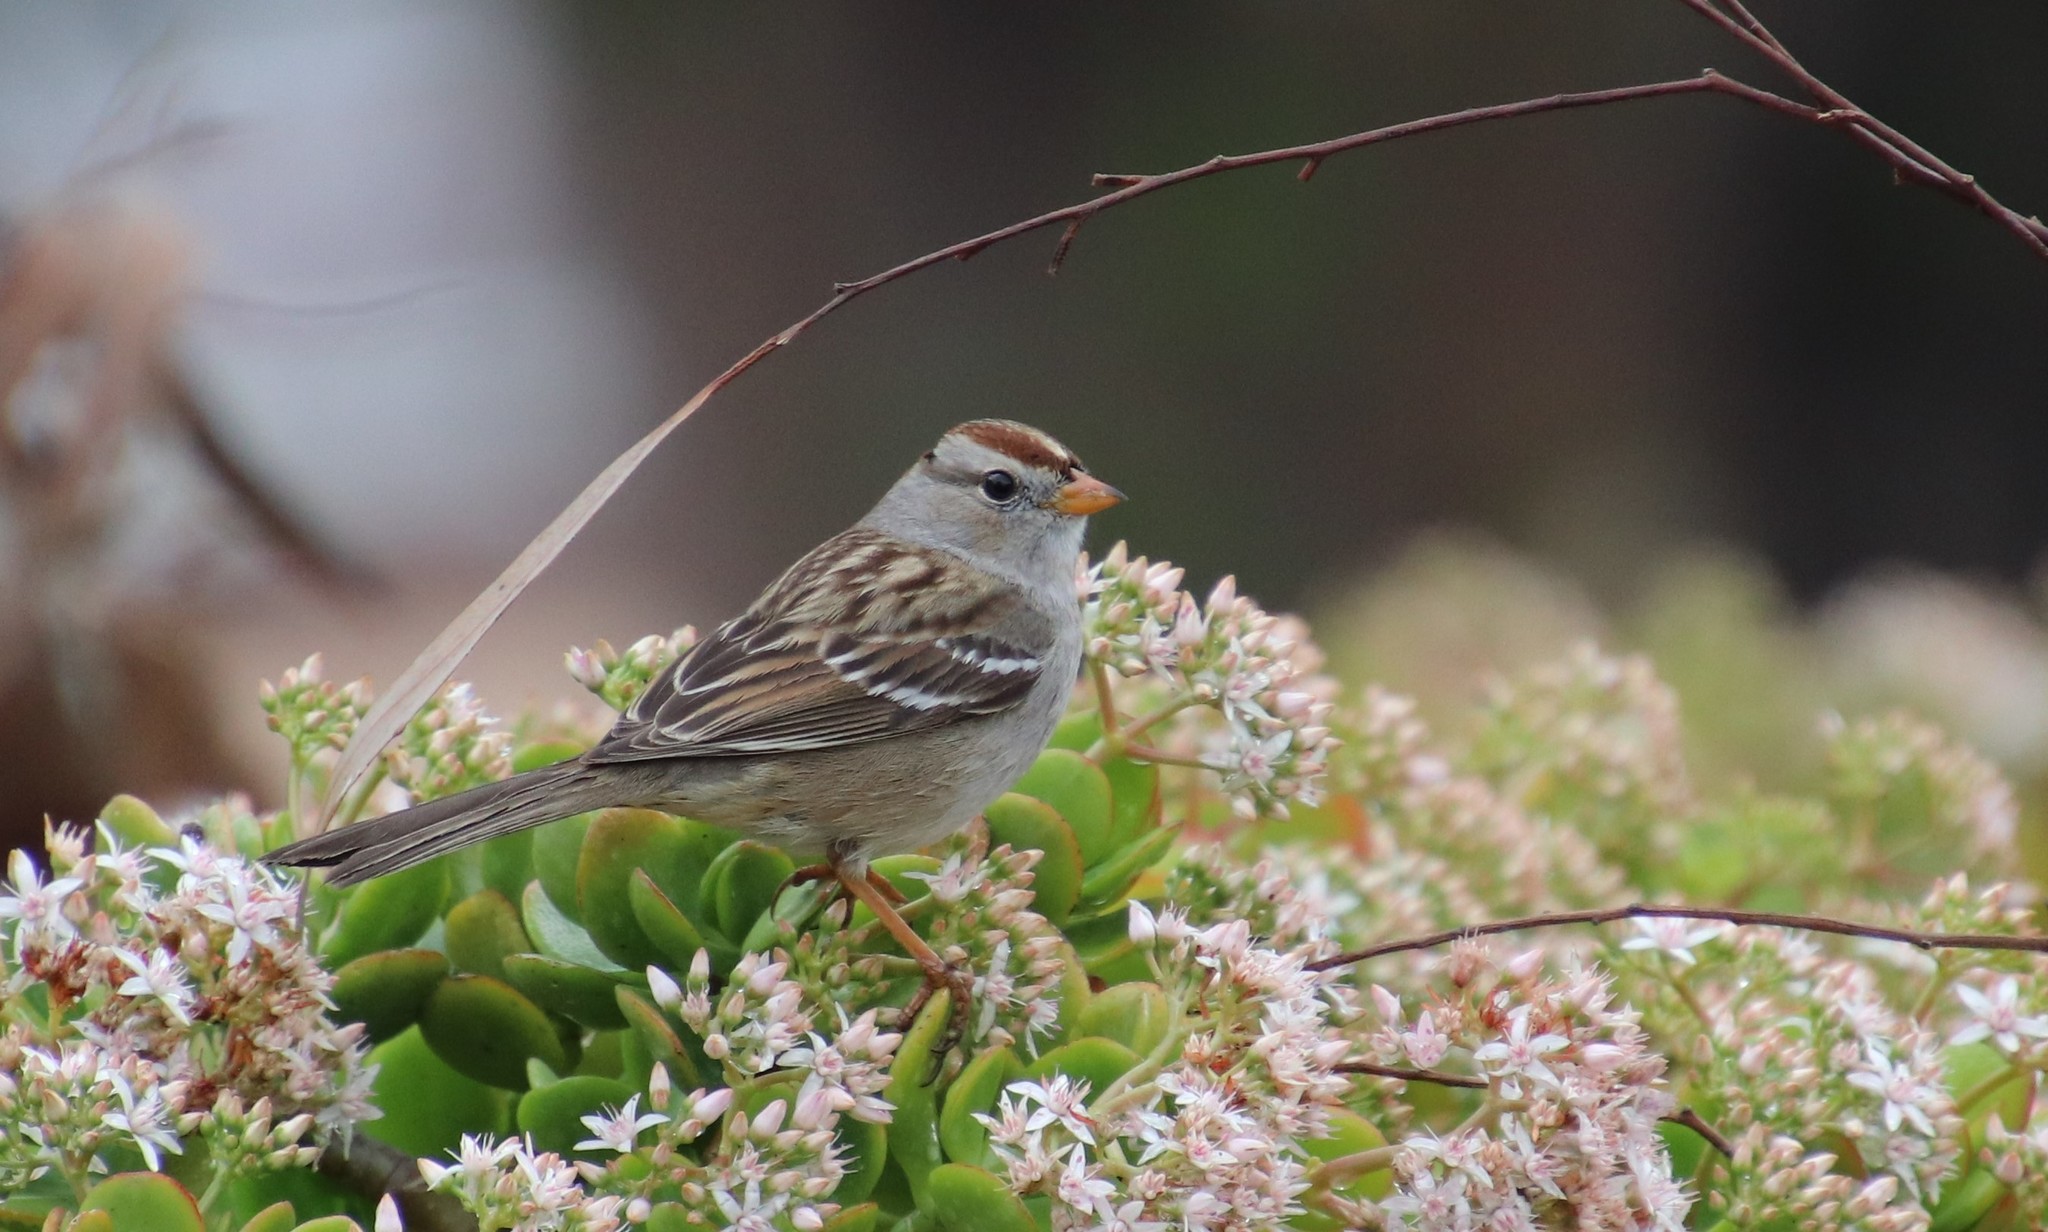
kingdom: Animalia
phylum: Chordata
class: Aves
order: Passeriformes
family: Passerellidae
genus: Zonotrichia
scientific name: Zonotrichia leucophrys
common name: White-crowned sparrow
